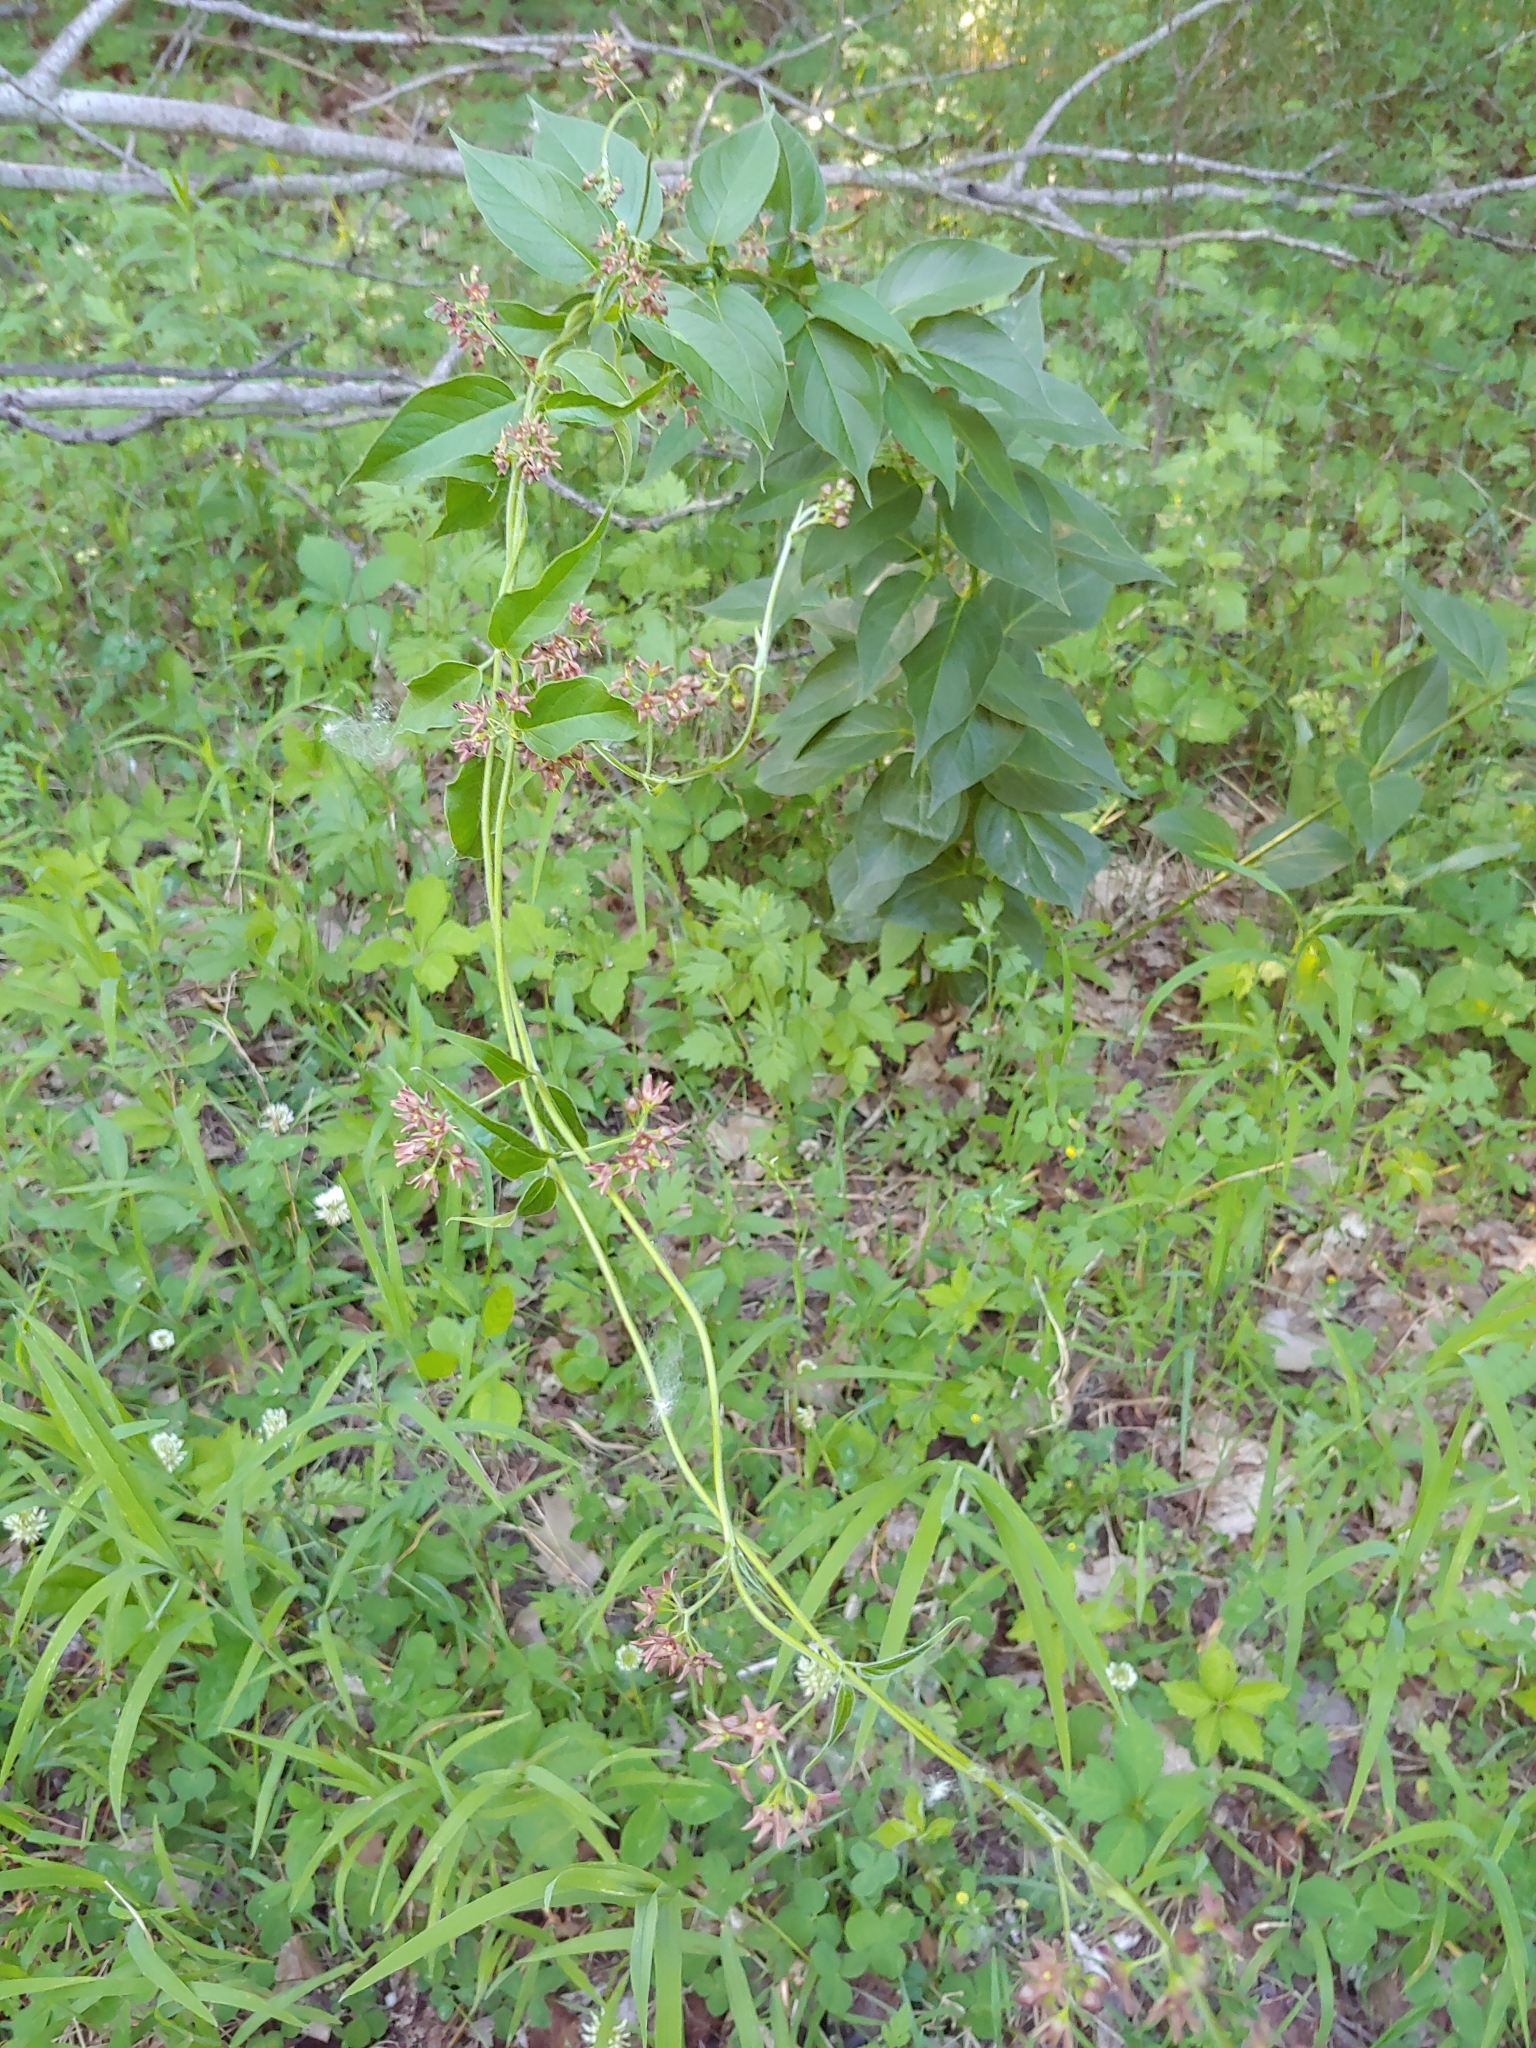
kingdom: Plantae
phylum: Tracheophyta
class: Magnoliopsida
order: Gentianales
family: Apocynaceae
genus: Vincetoxicum
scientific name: Vincetoxicum rossicum
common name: Dog-strangling vine
